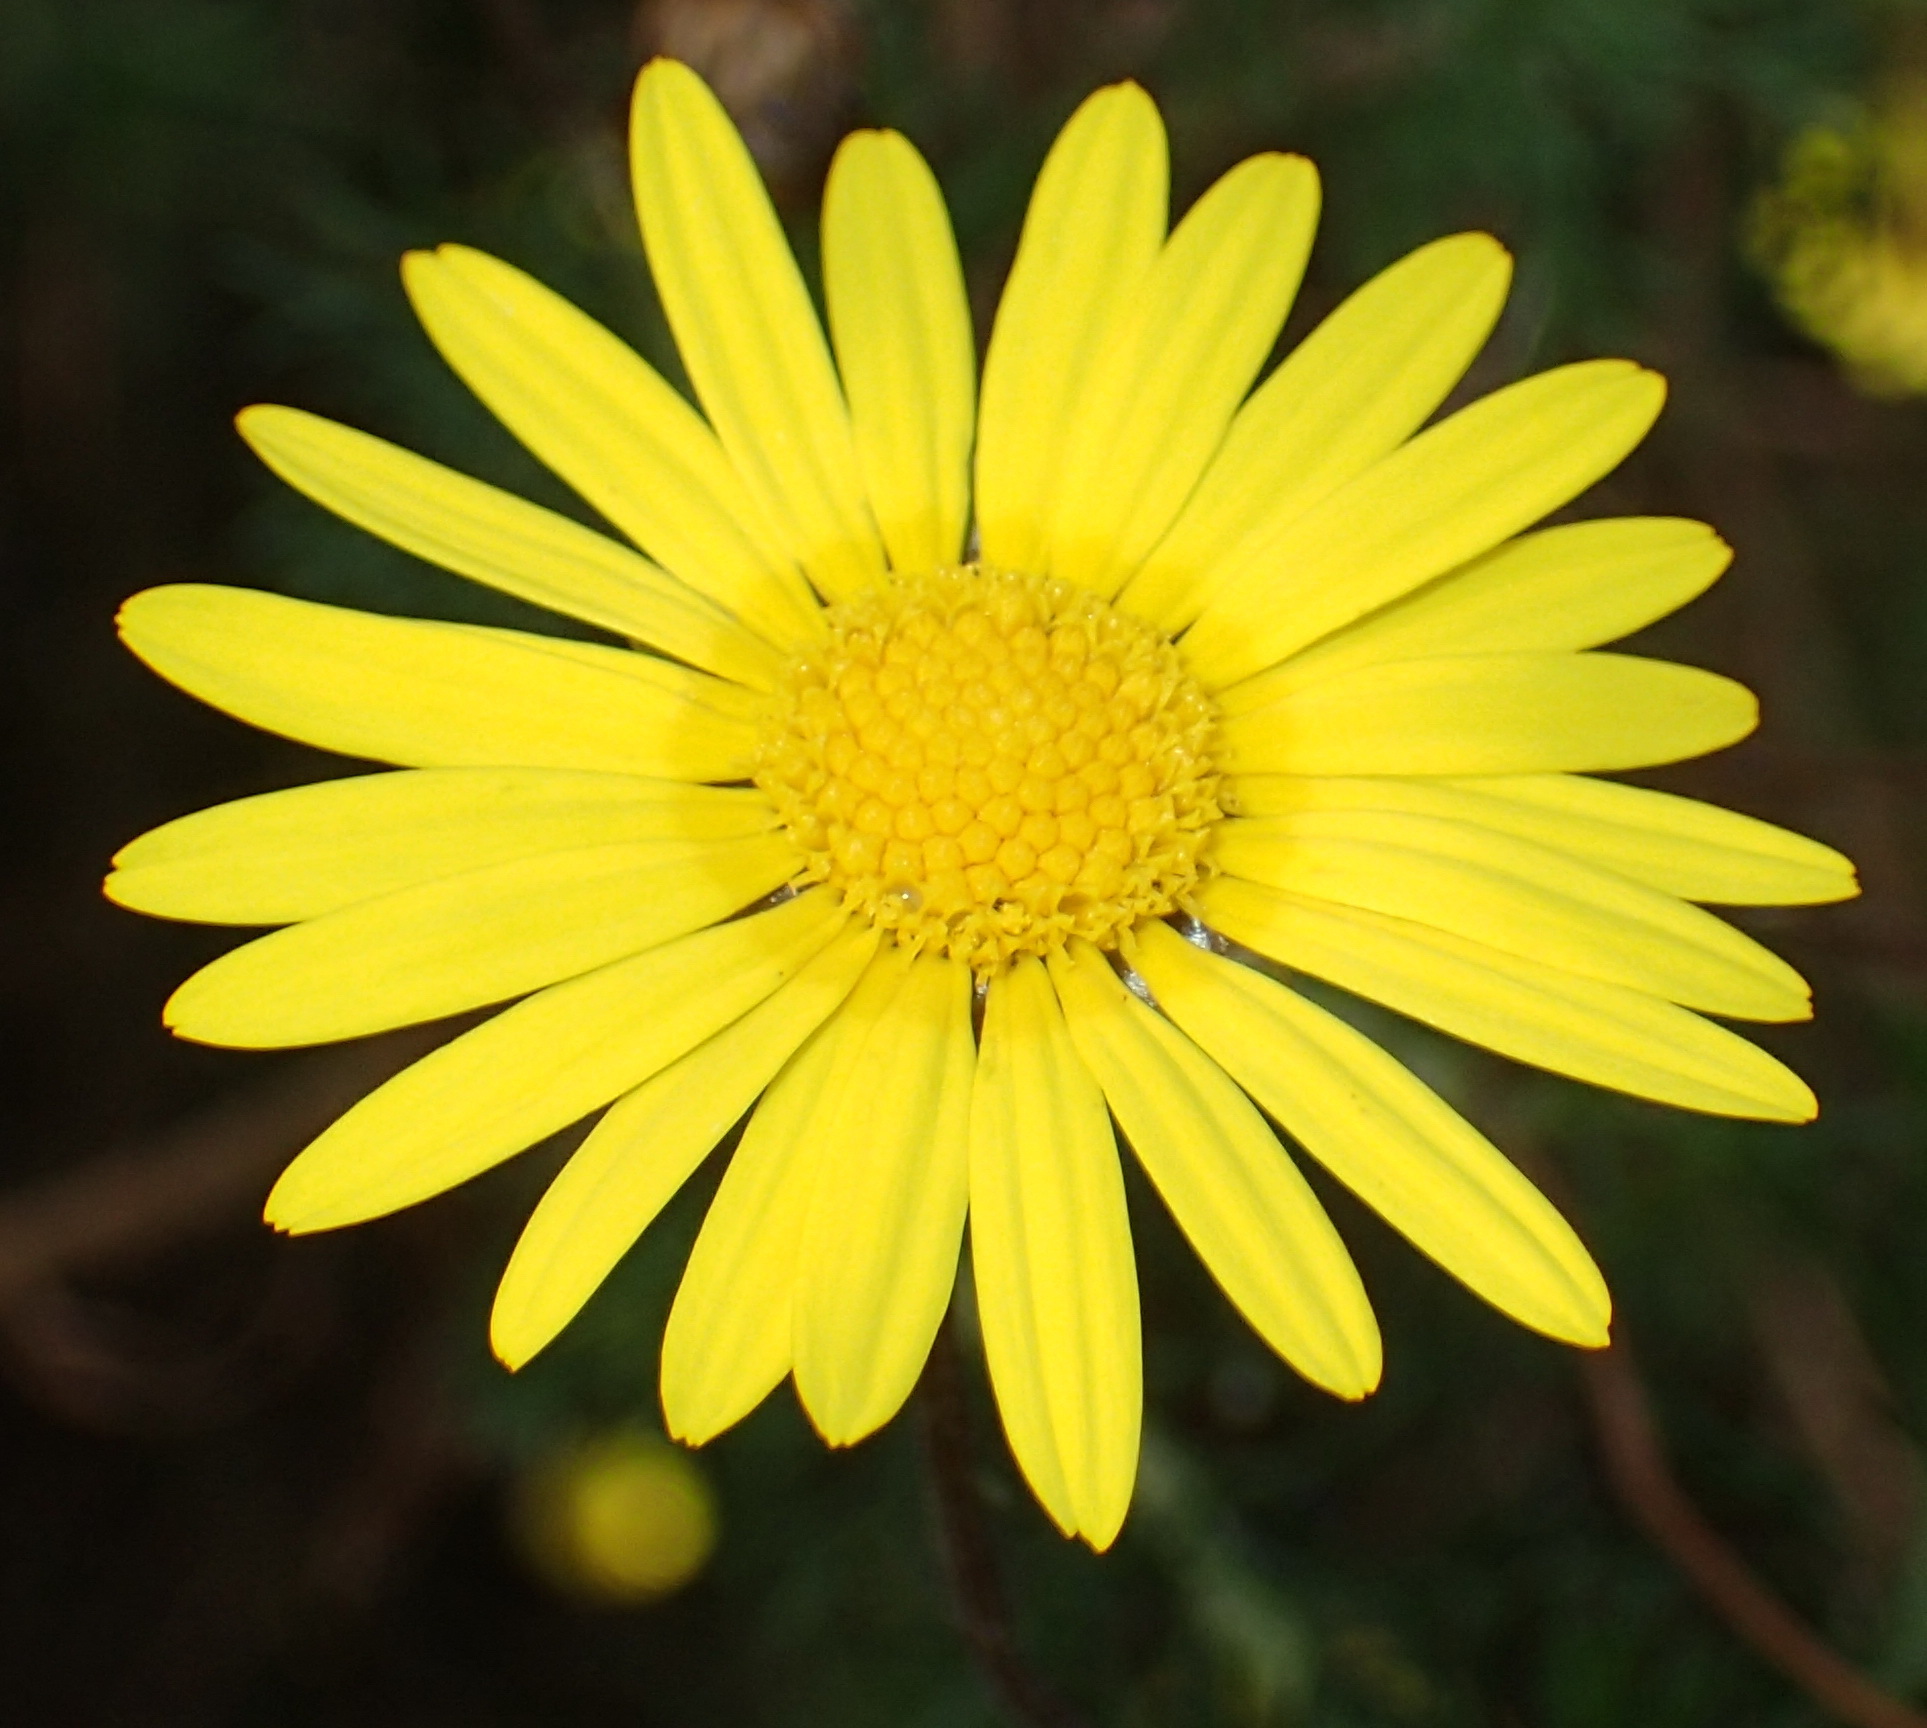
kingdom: Plantae
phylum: Tracheophyta
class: Magnoliopsida
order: Asterales
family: Asteraceae
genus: Ursinia
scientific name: Ursinia scariosa
